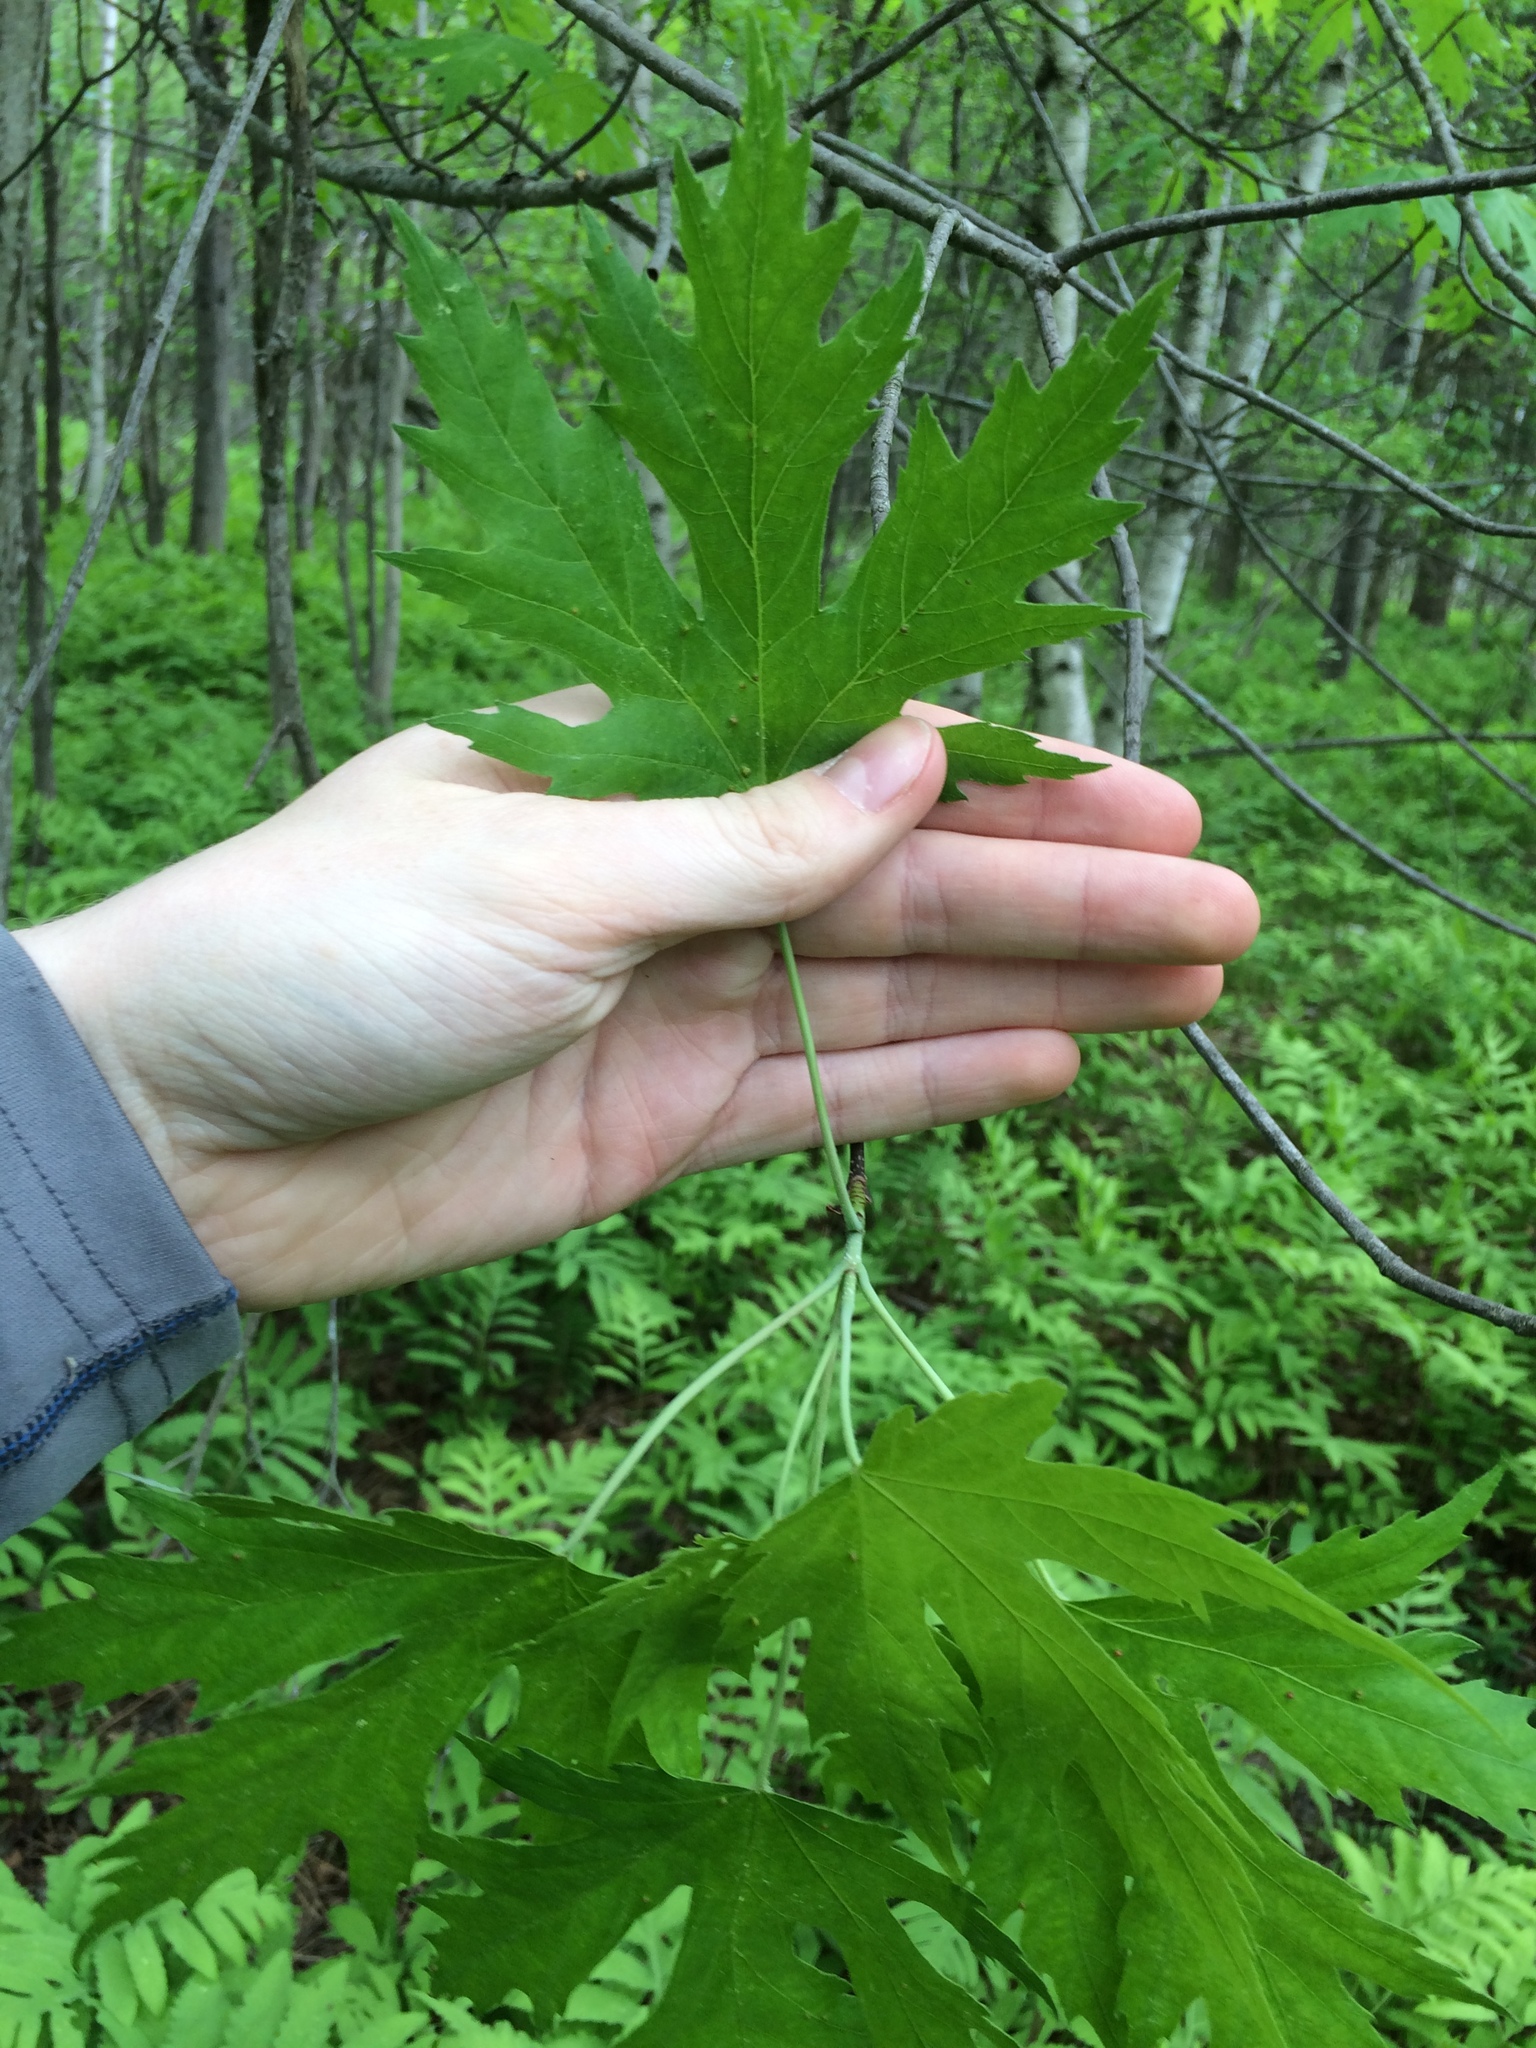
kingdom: Plantae
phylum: Tracheophyta
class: Magnoliopsida
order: Sapindales
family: Sapindaceae
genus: Acer
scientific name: Acer saccharinum
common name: Silver maple
